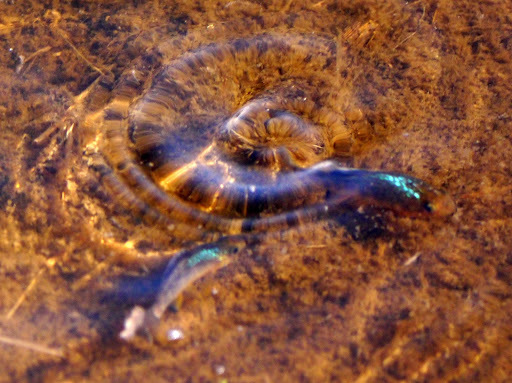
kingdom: Animalia
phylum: Chordata
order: Cyprinodontiformes
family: Cyprinodontidae
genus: Cyprinodon
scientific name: Cyprinodon variegatus
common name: Sheepshead minnow
